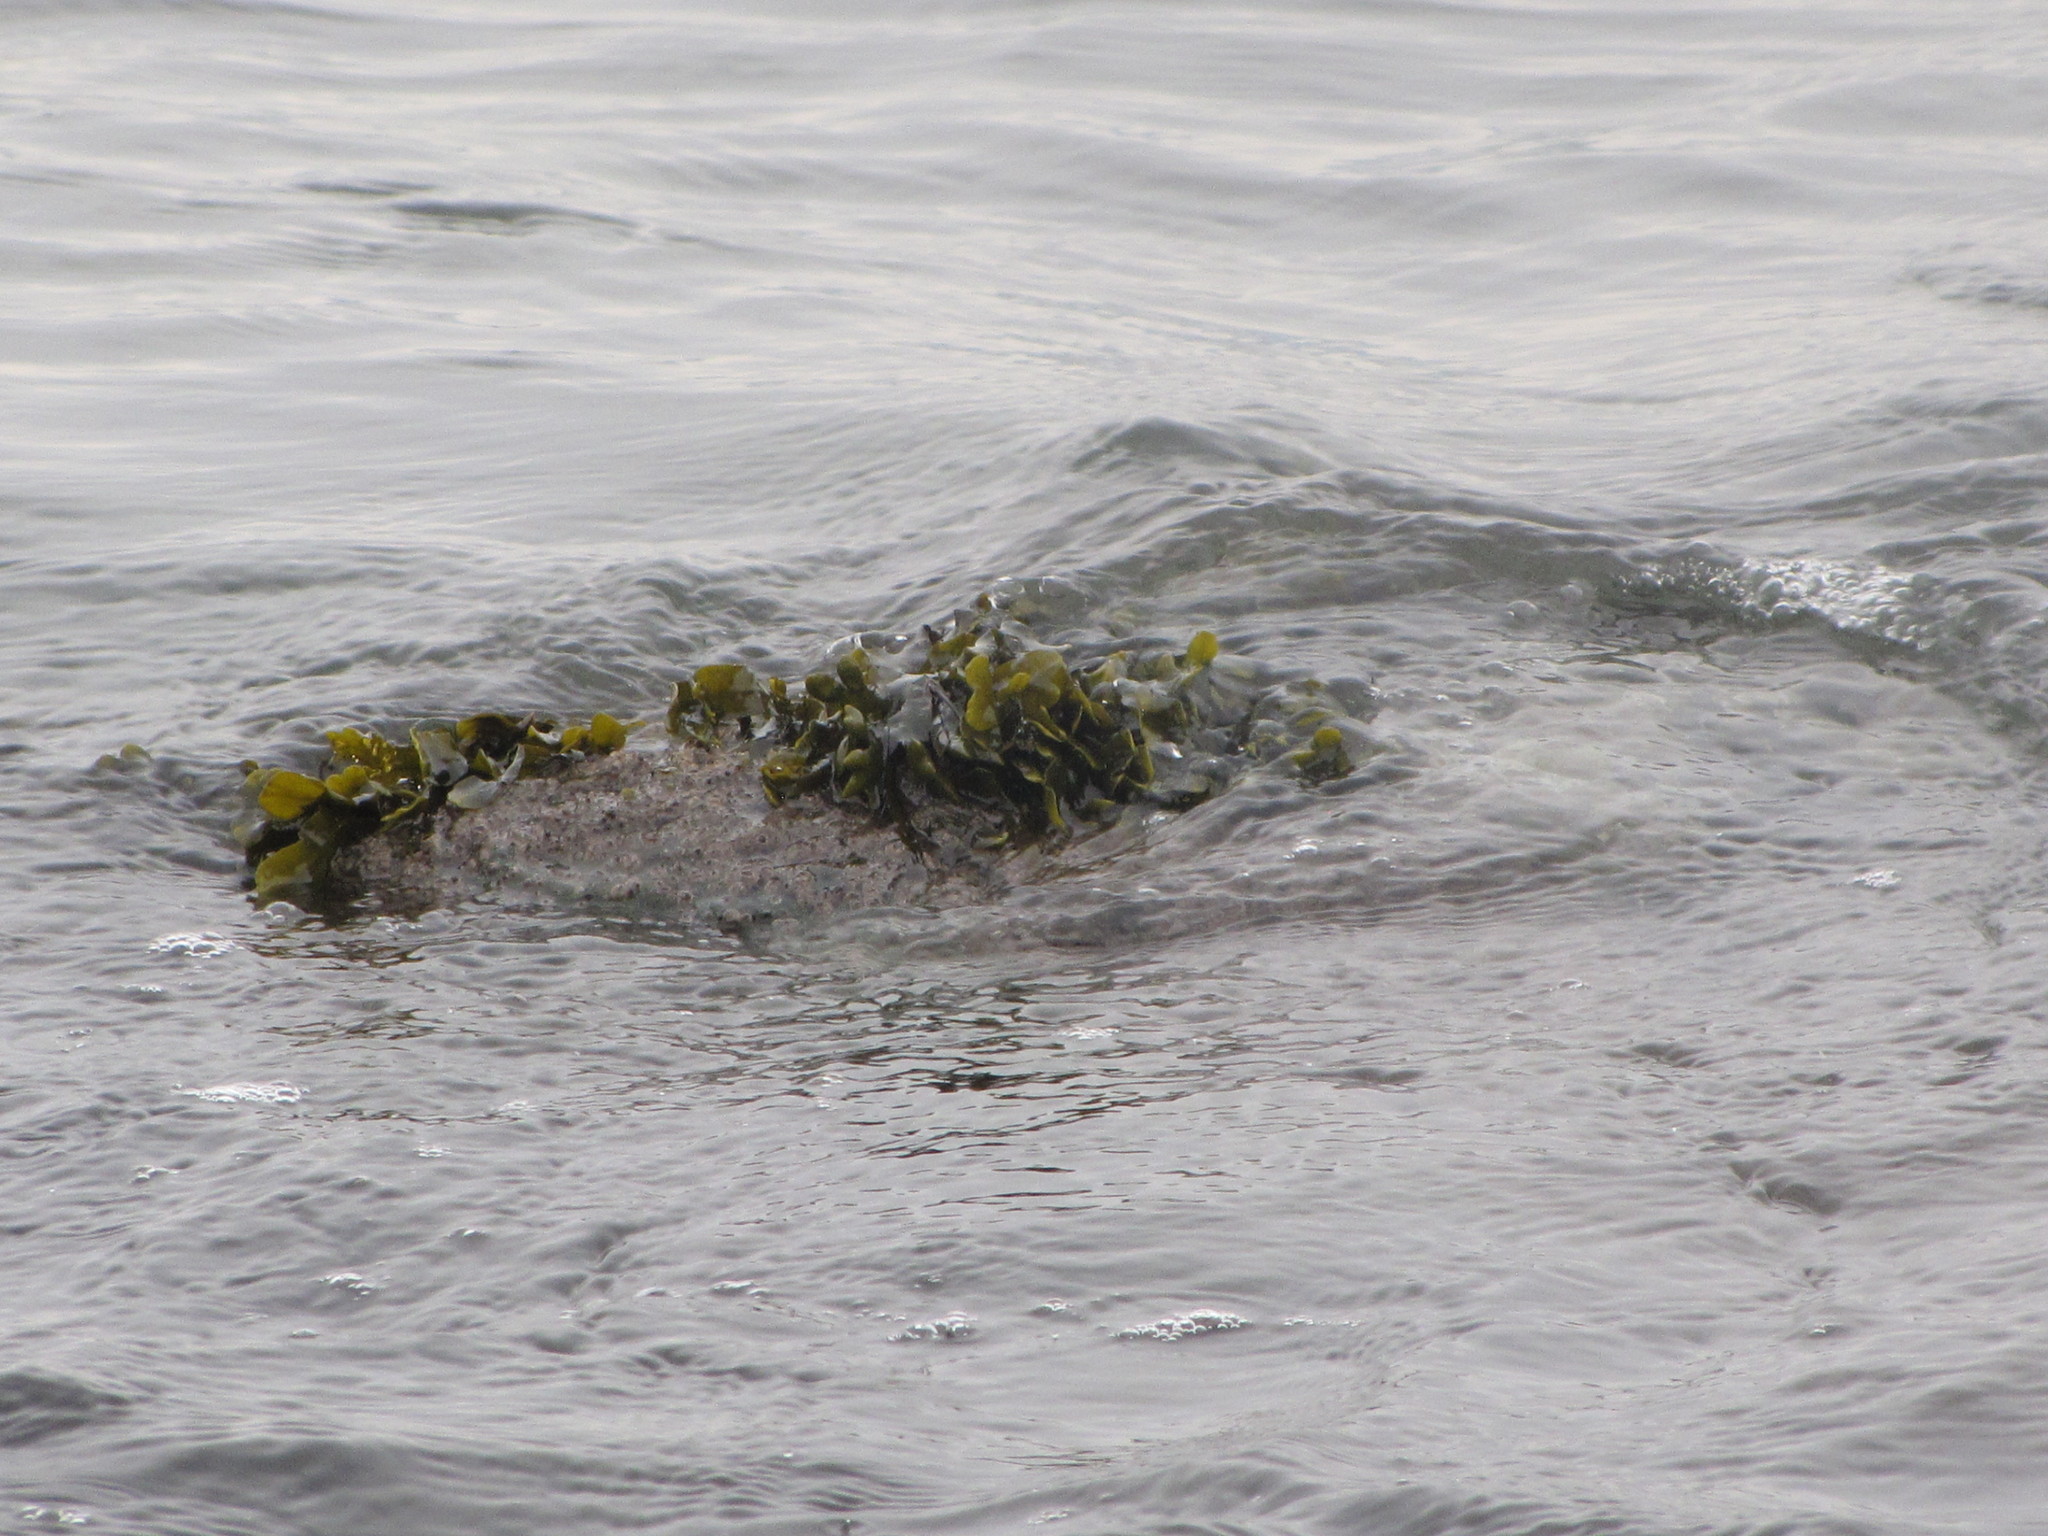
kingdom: Chromista
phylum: Ochrophyta
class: Phaeophyceae
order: Fucales
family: Fucaceae
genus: Fucus
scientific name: Fucus distichus
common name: Rockweed
